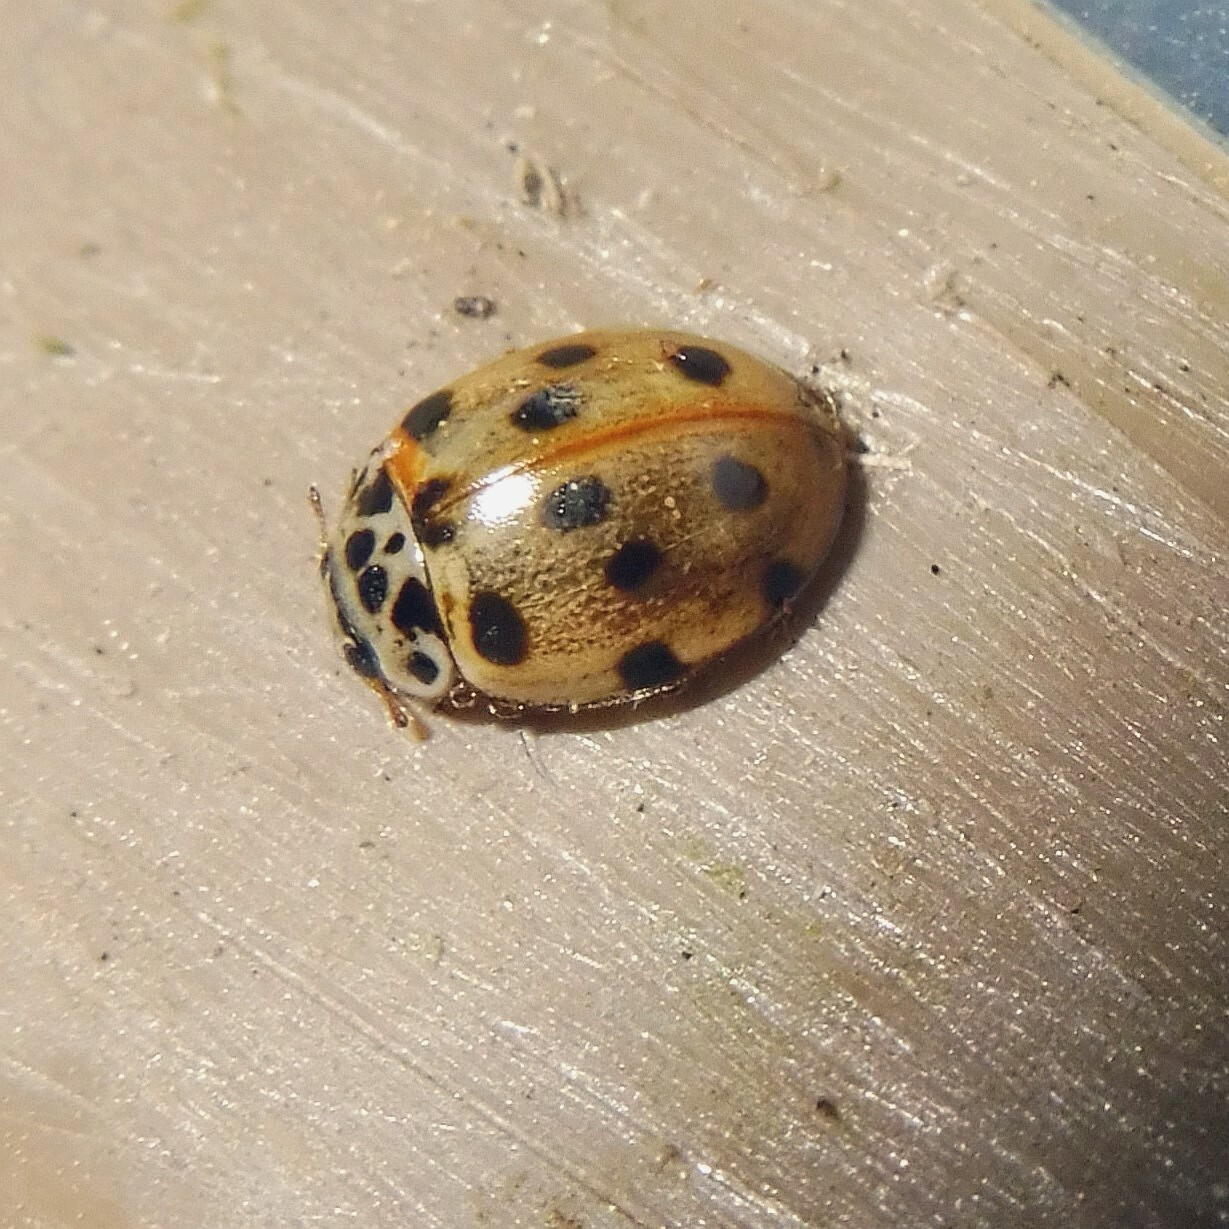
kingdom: Animalia
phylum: Arthropoda
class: Insecta
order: Coleoptera
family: Coccinellidae
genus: Adalia
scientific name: Adalia decempunctata
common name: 10-spot ladybird
